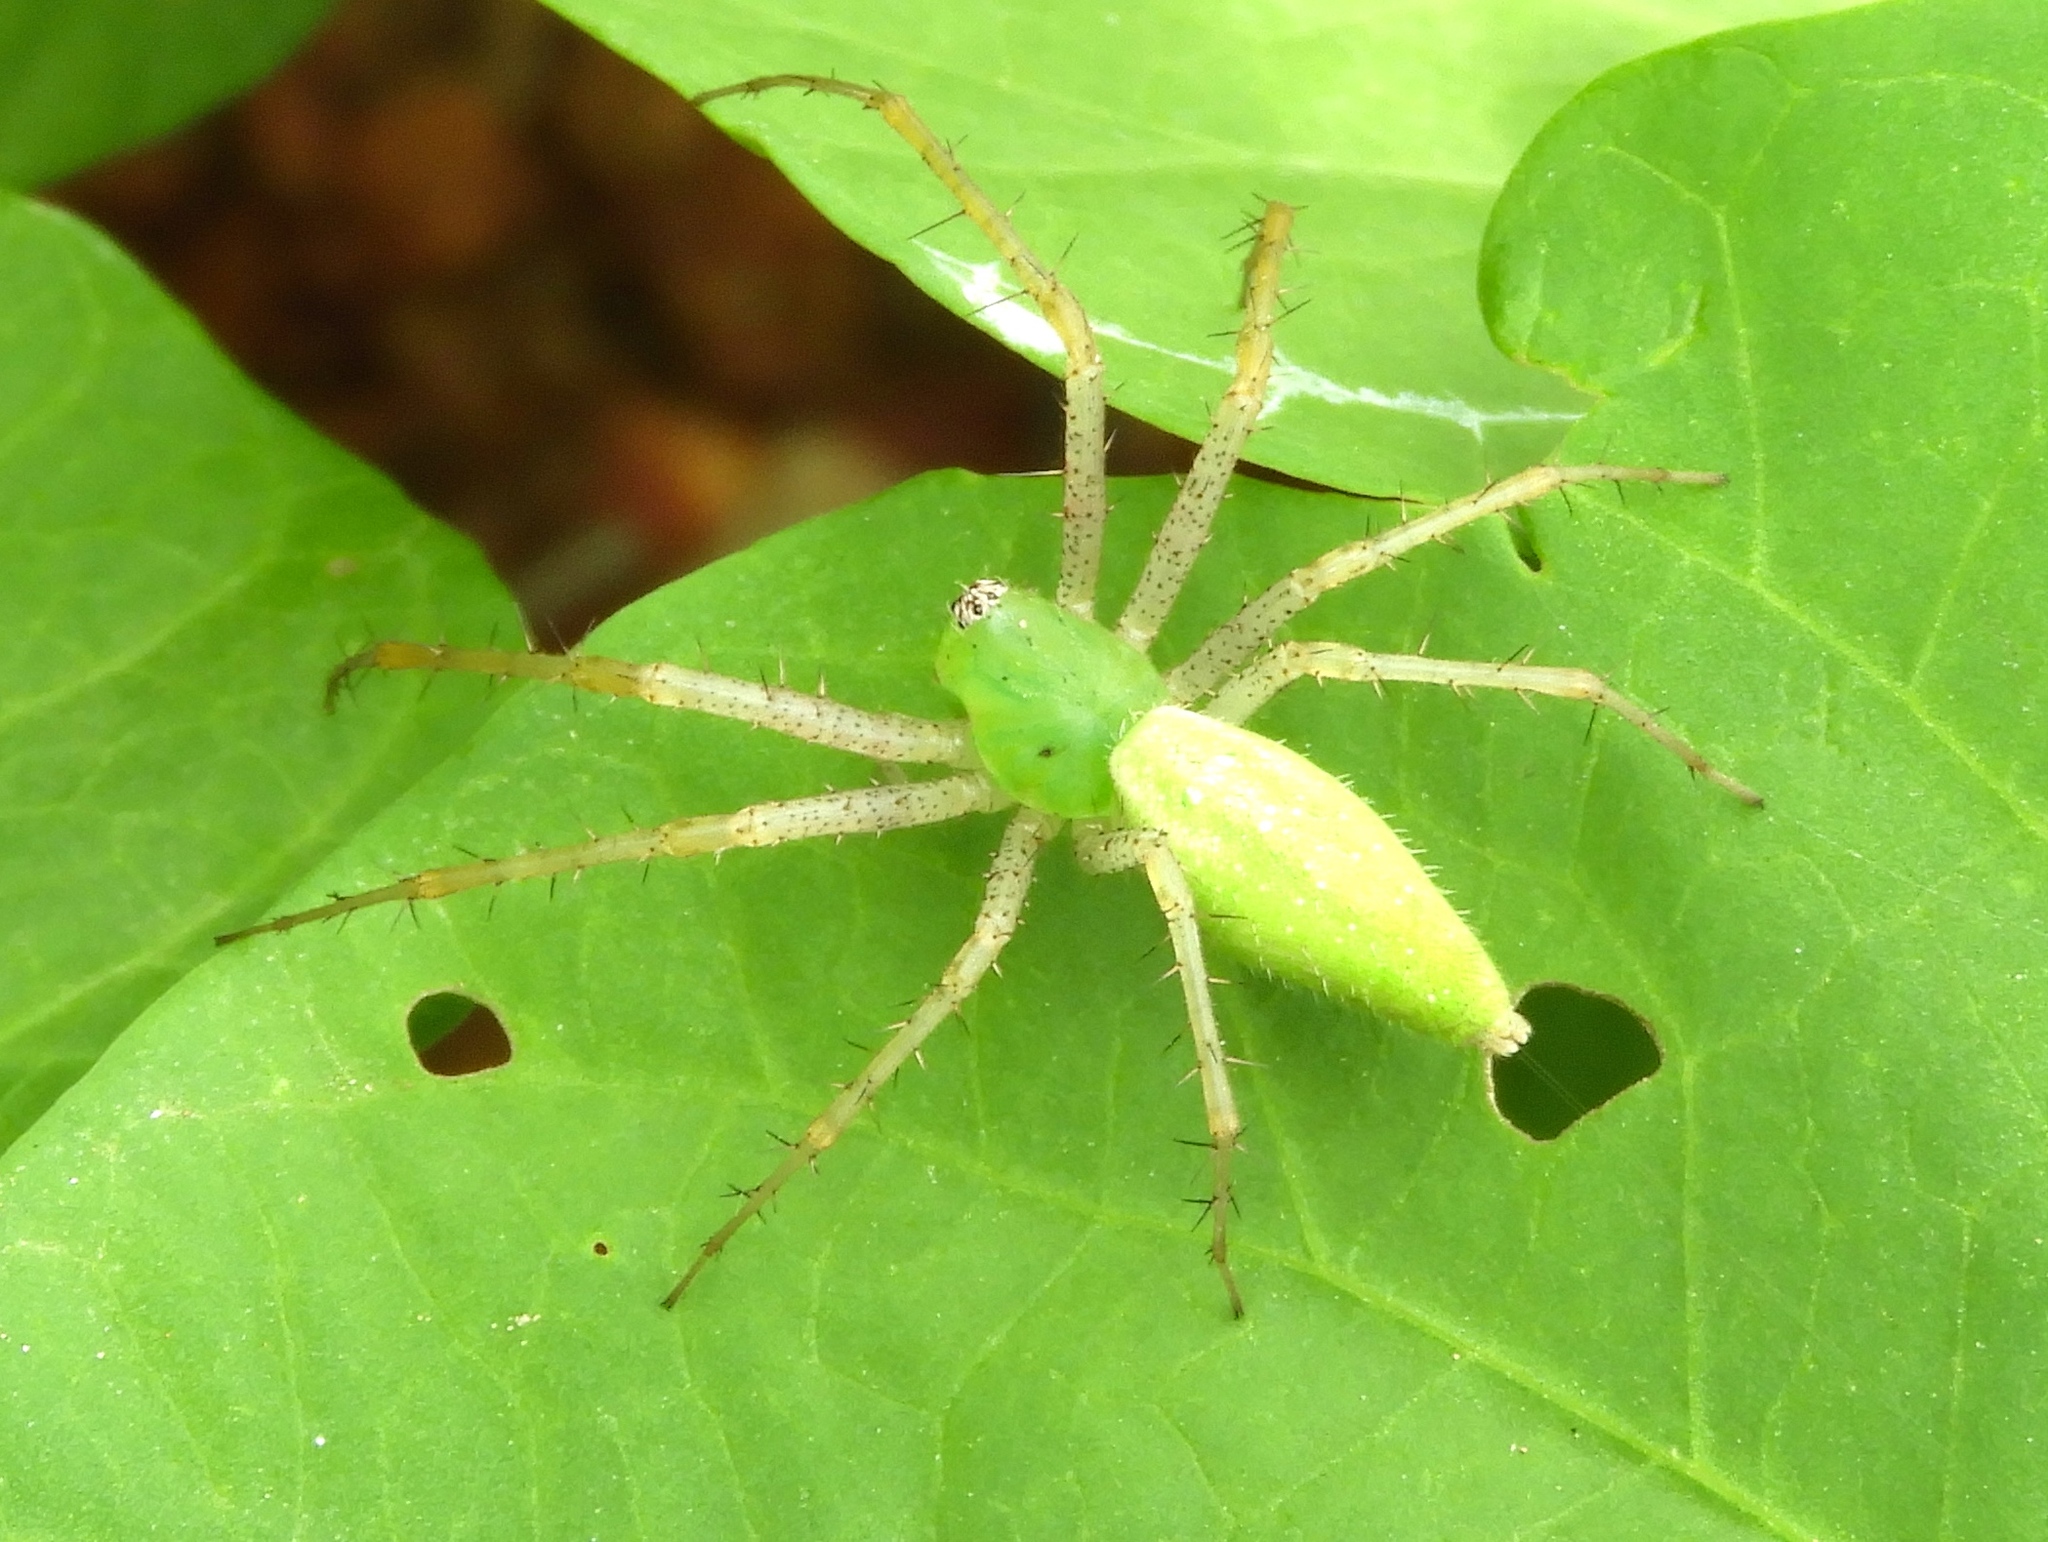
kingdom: Animalia
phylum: Arthropoda
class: Arachnida
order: Araneae
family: Oxyopidae
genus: Peucetia
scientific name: Peucetia longipalpis
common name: Lynx spiders
